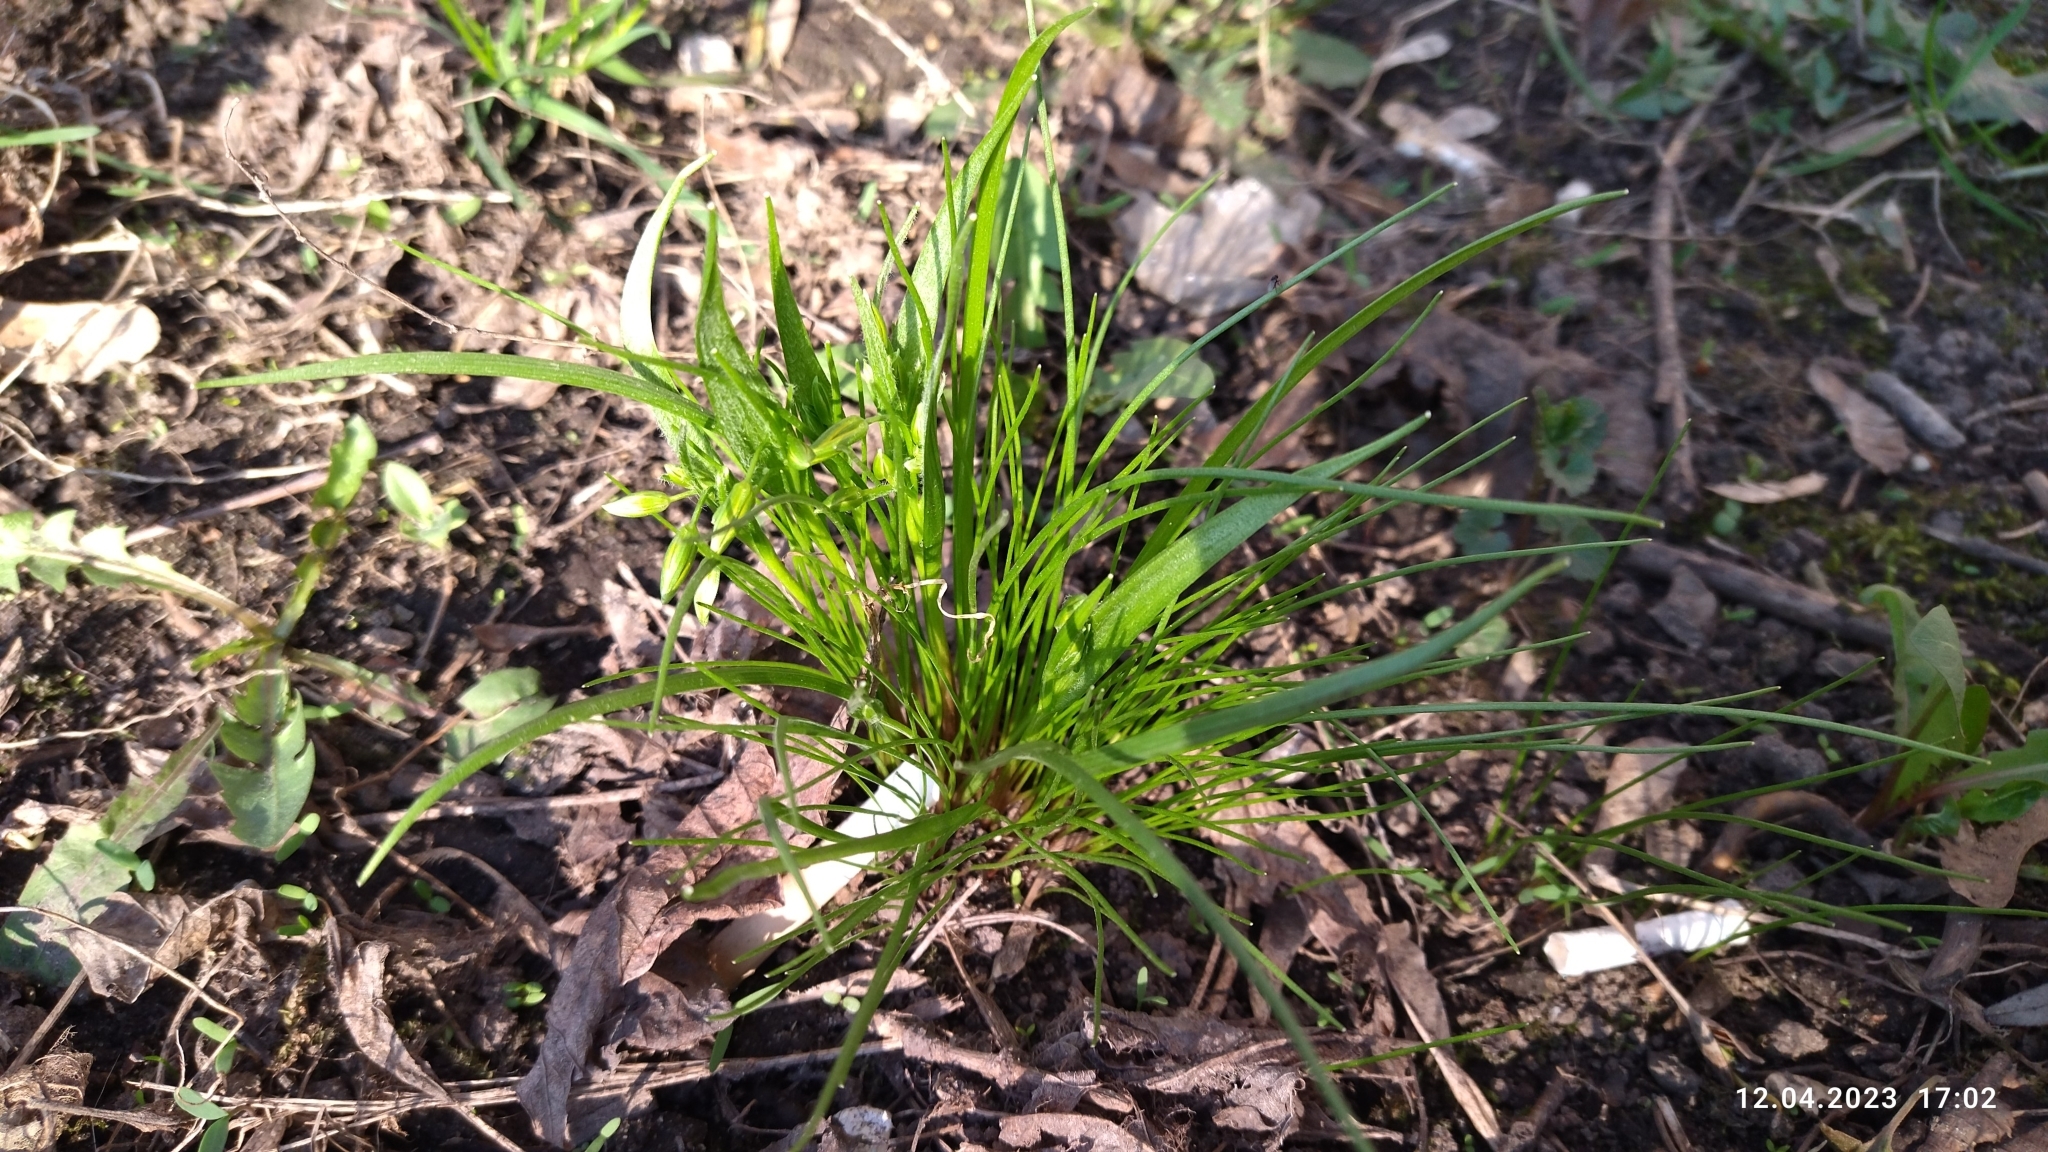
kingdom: Plantae
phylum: Tracheophyta
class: Liliopsida
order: Liliales
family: Liliaceae
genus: Gagea
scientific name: Gagea minima
